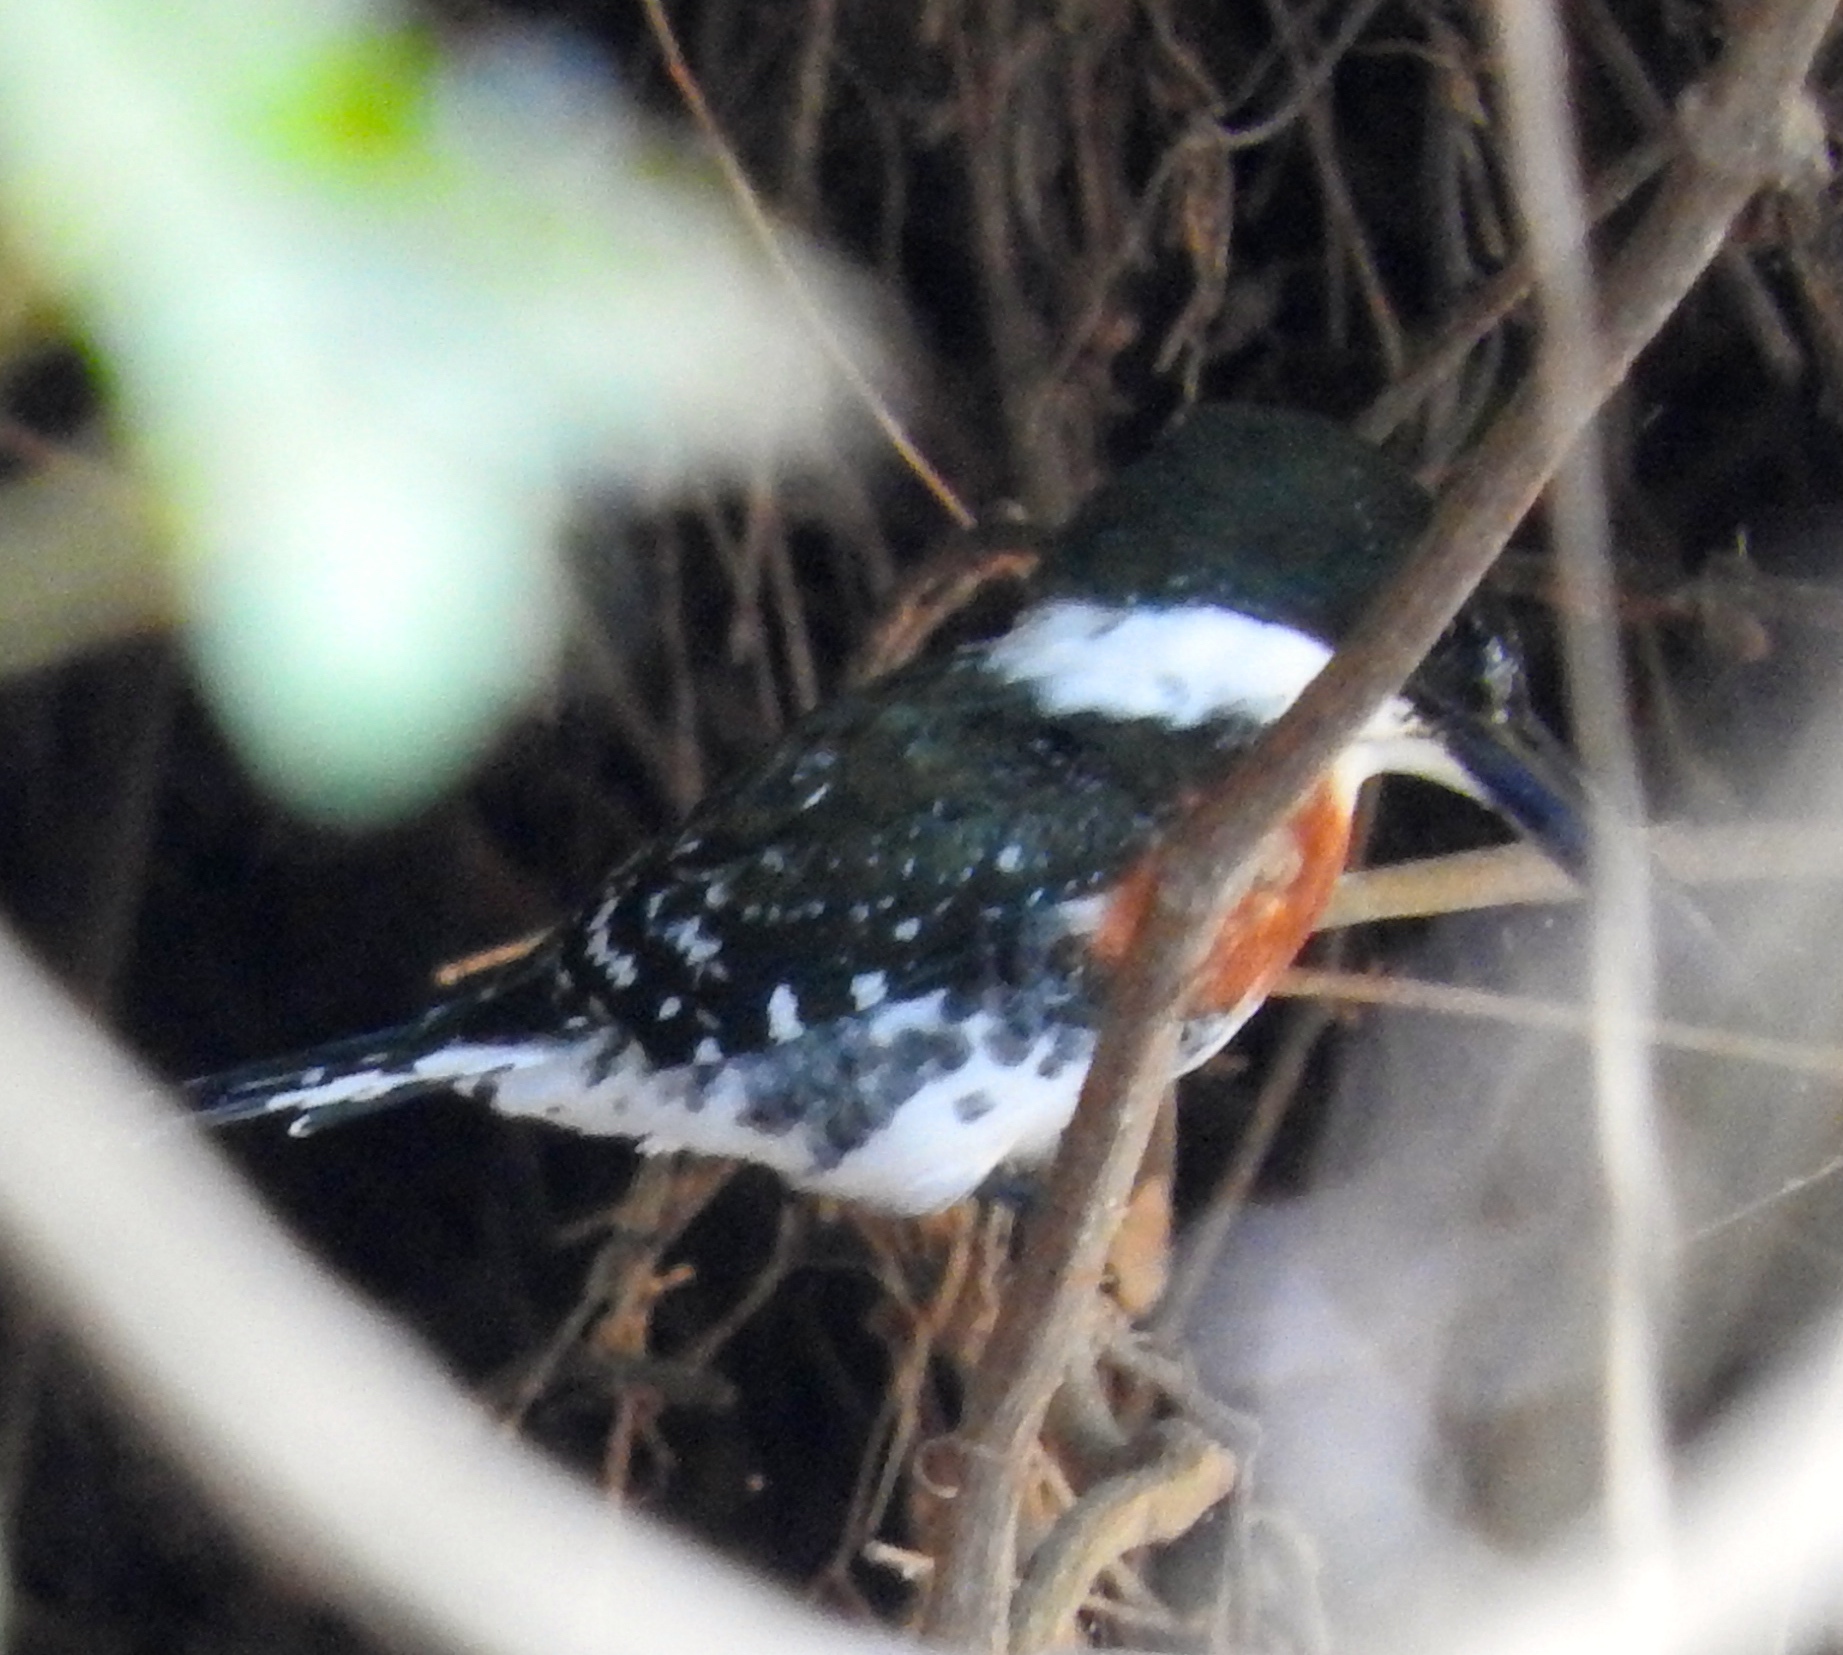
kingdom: Animalia
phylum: Chordata
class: Aves
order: Coraciiformes
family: Alcedinidae
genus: Chloroceryle
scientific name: Chloroceryle americana
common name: Green kingfisher
